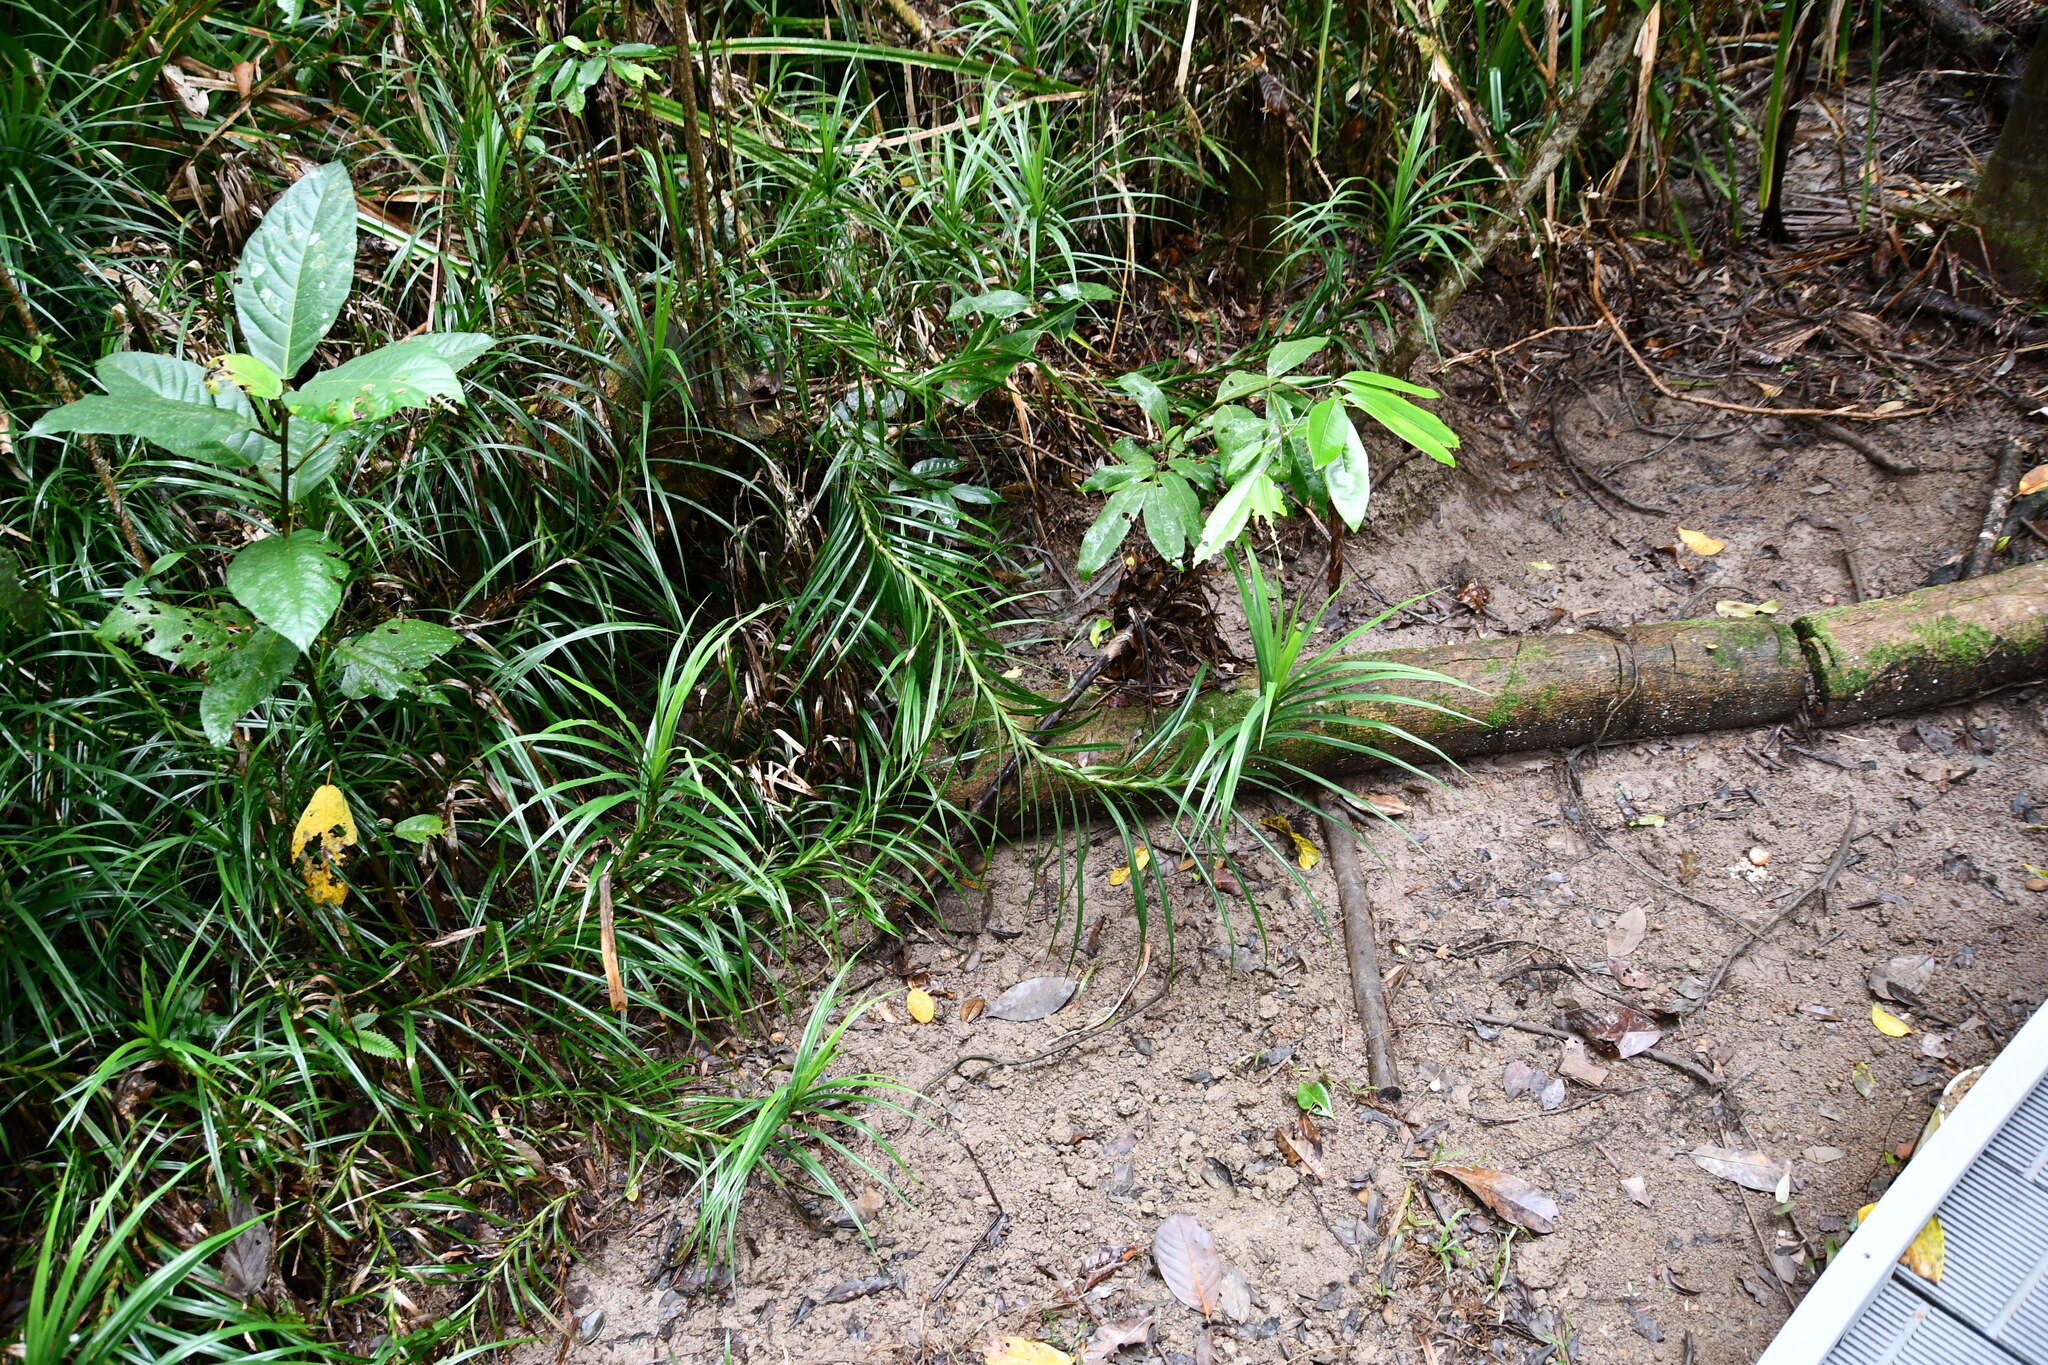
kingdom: Plantae
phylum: Tracheophyta
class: Liliopsida
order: Pandanales
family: Pandanaceae
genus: Freycinetia
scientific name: Freycinetia excelsa
